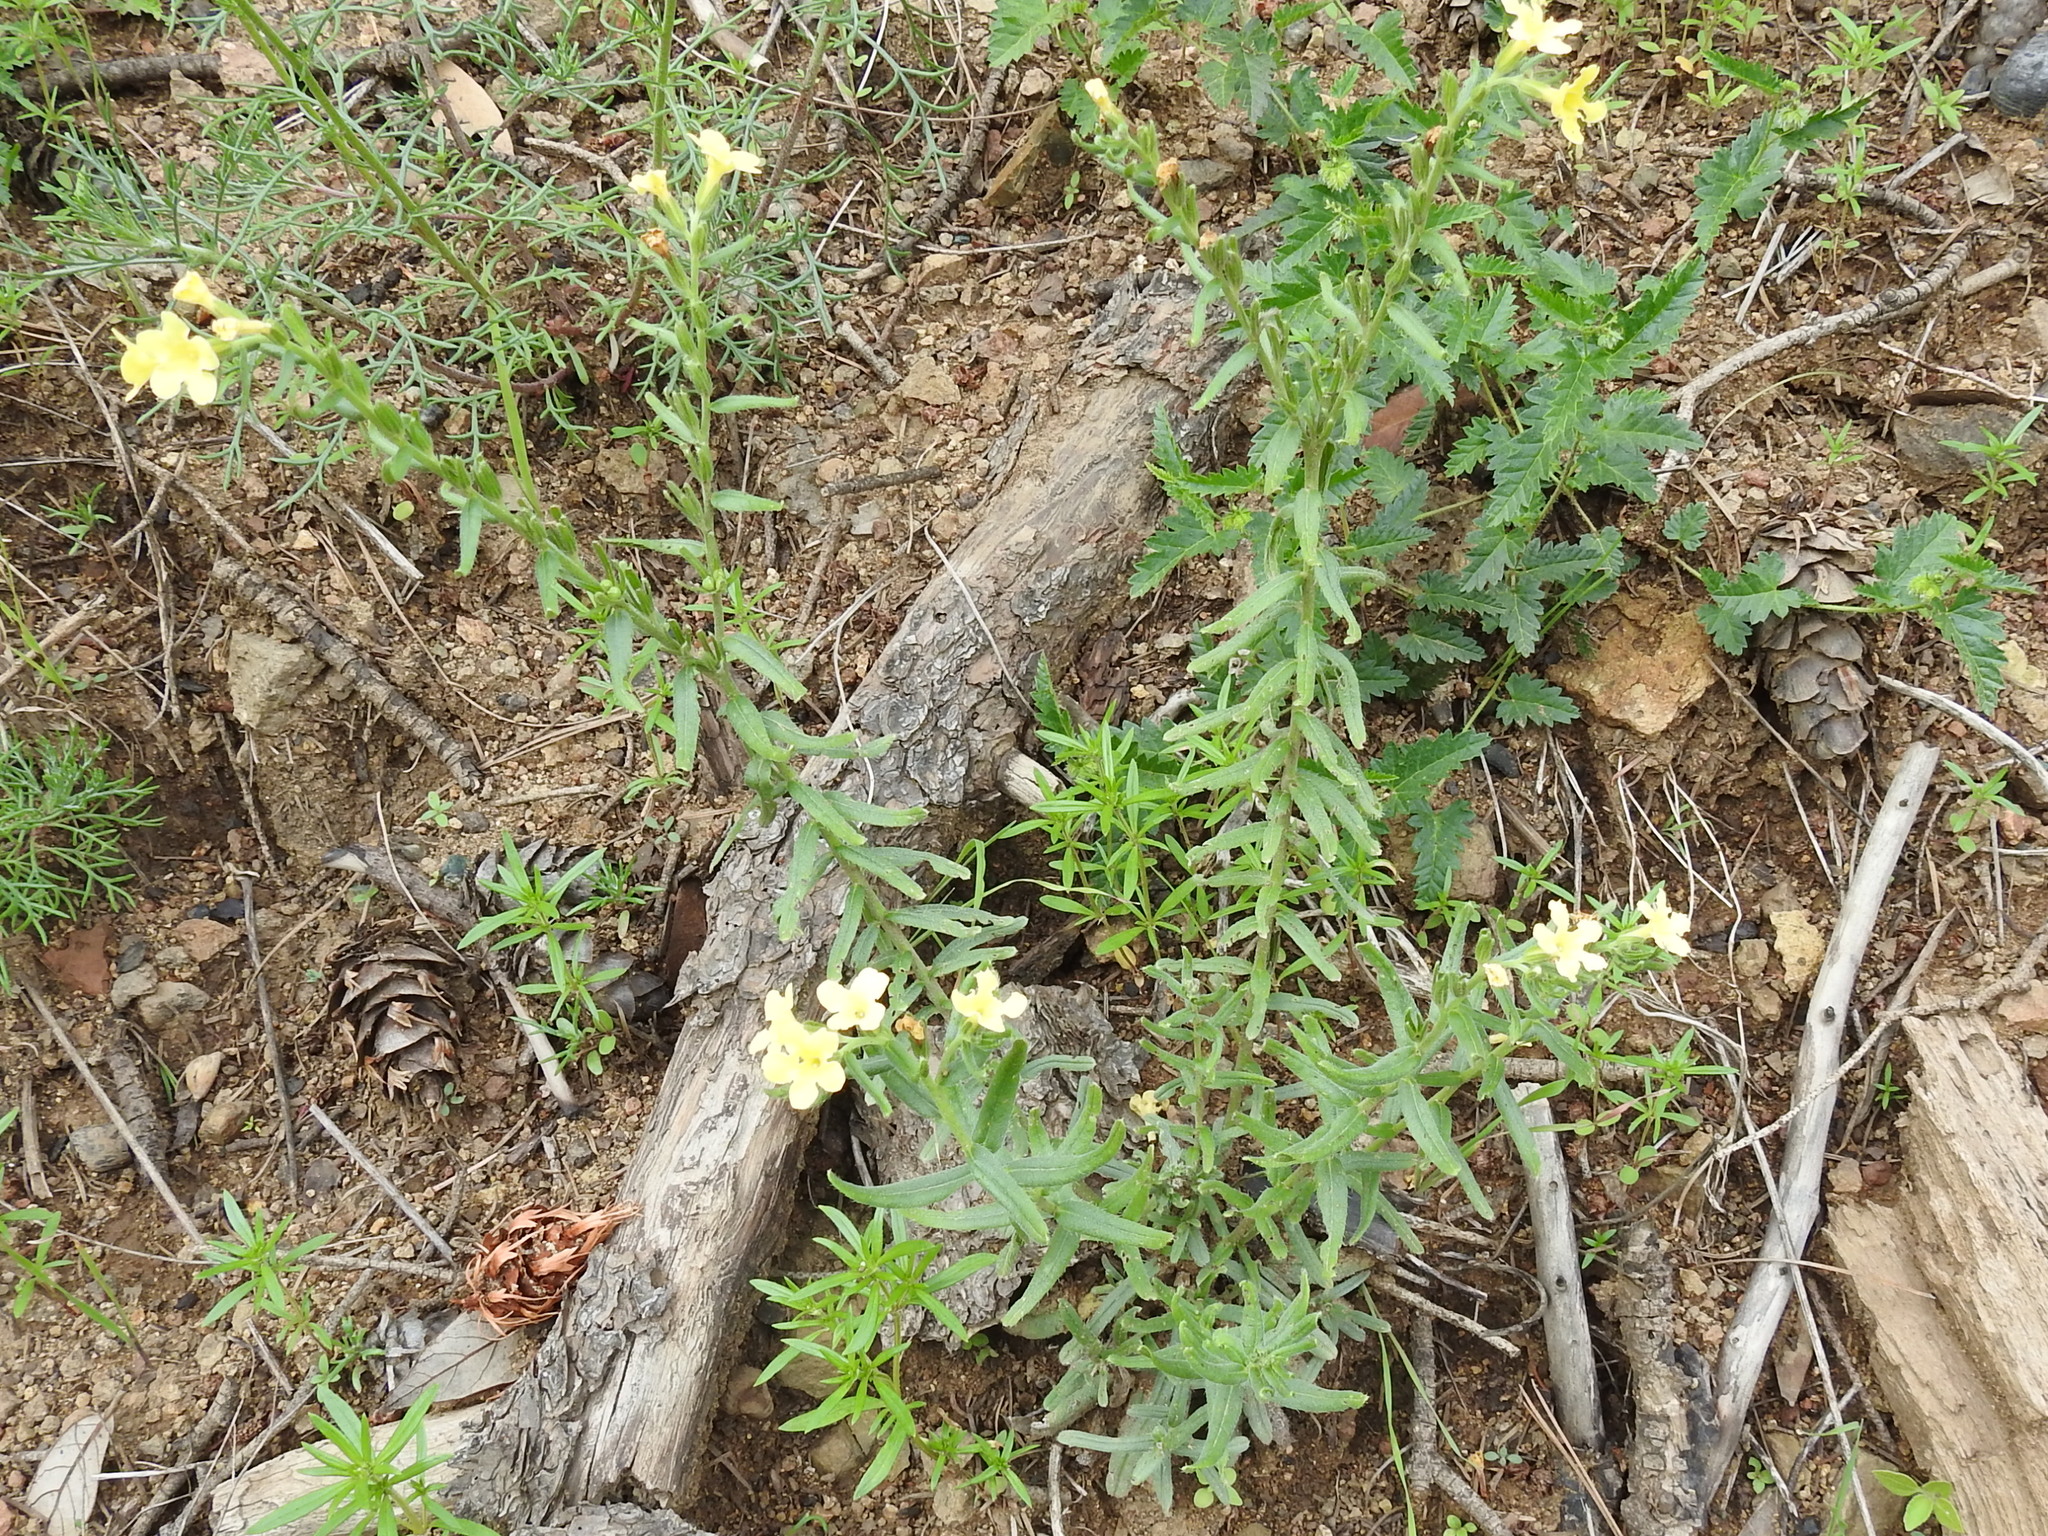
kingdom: Plantae
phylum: Tracheophyta
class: Magnoliopsida
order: Boraginales
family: Boraginaceae
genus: Lithospermum
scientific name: Lithospermum cobrense
